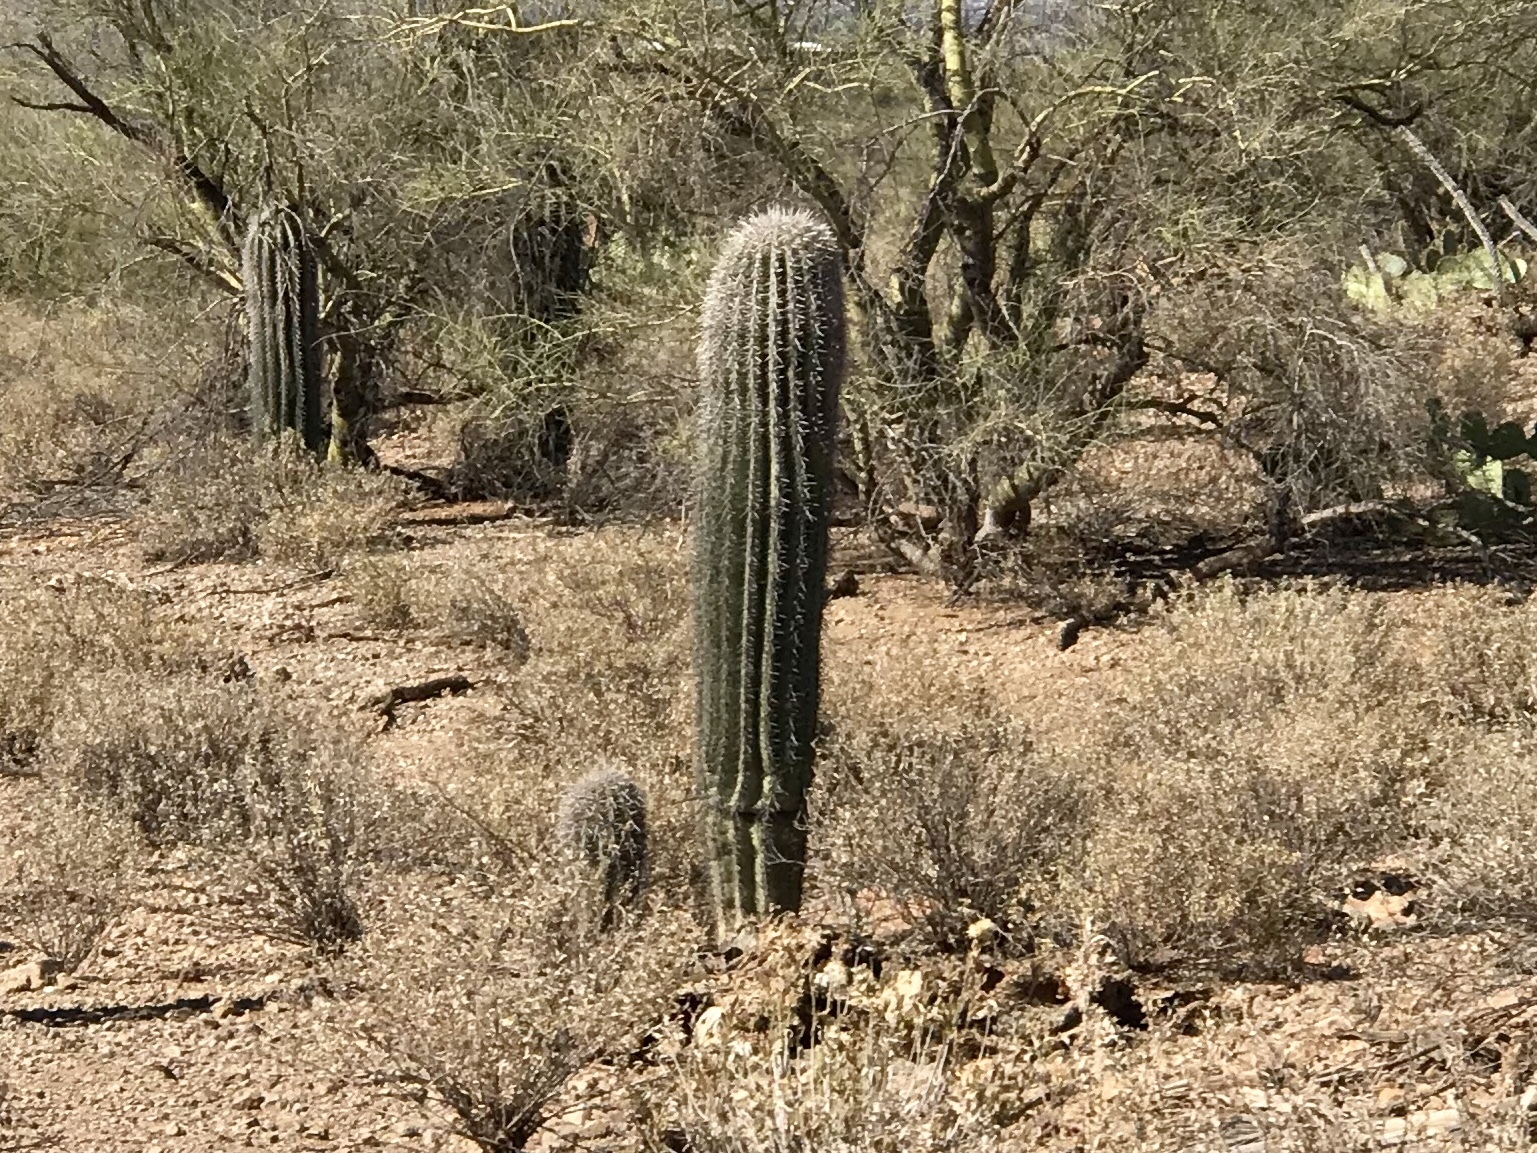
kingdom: Plantae
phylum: Tracheophyta
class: Magnoliopsida
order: Caryophyllales
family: Cactaceae
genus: Carnegiea
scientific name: Carnegiea gigantea
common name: Saguaro
